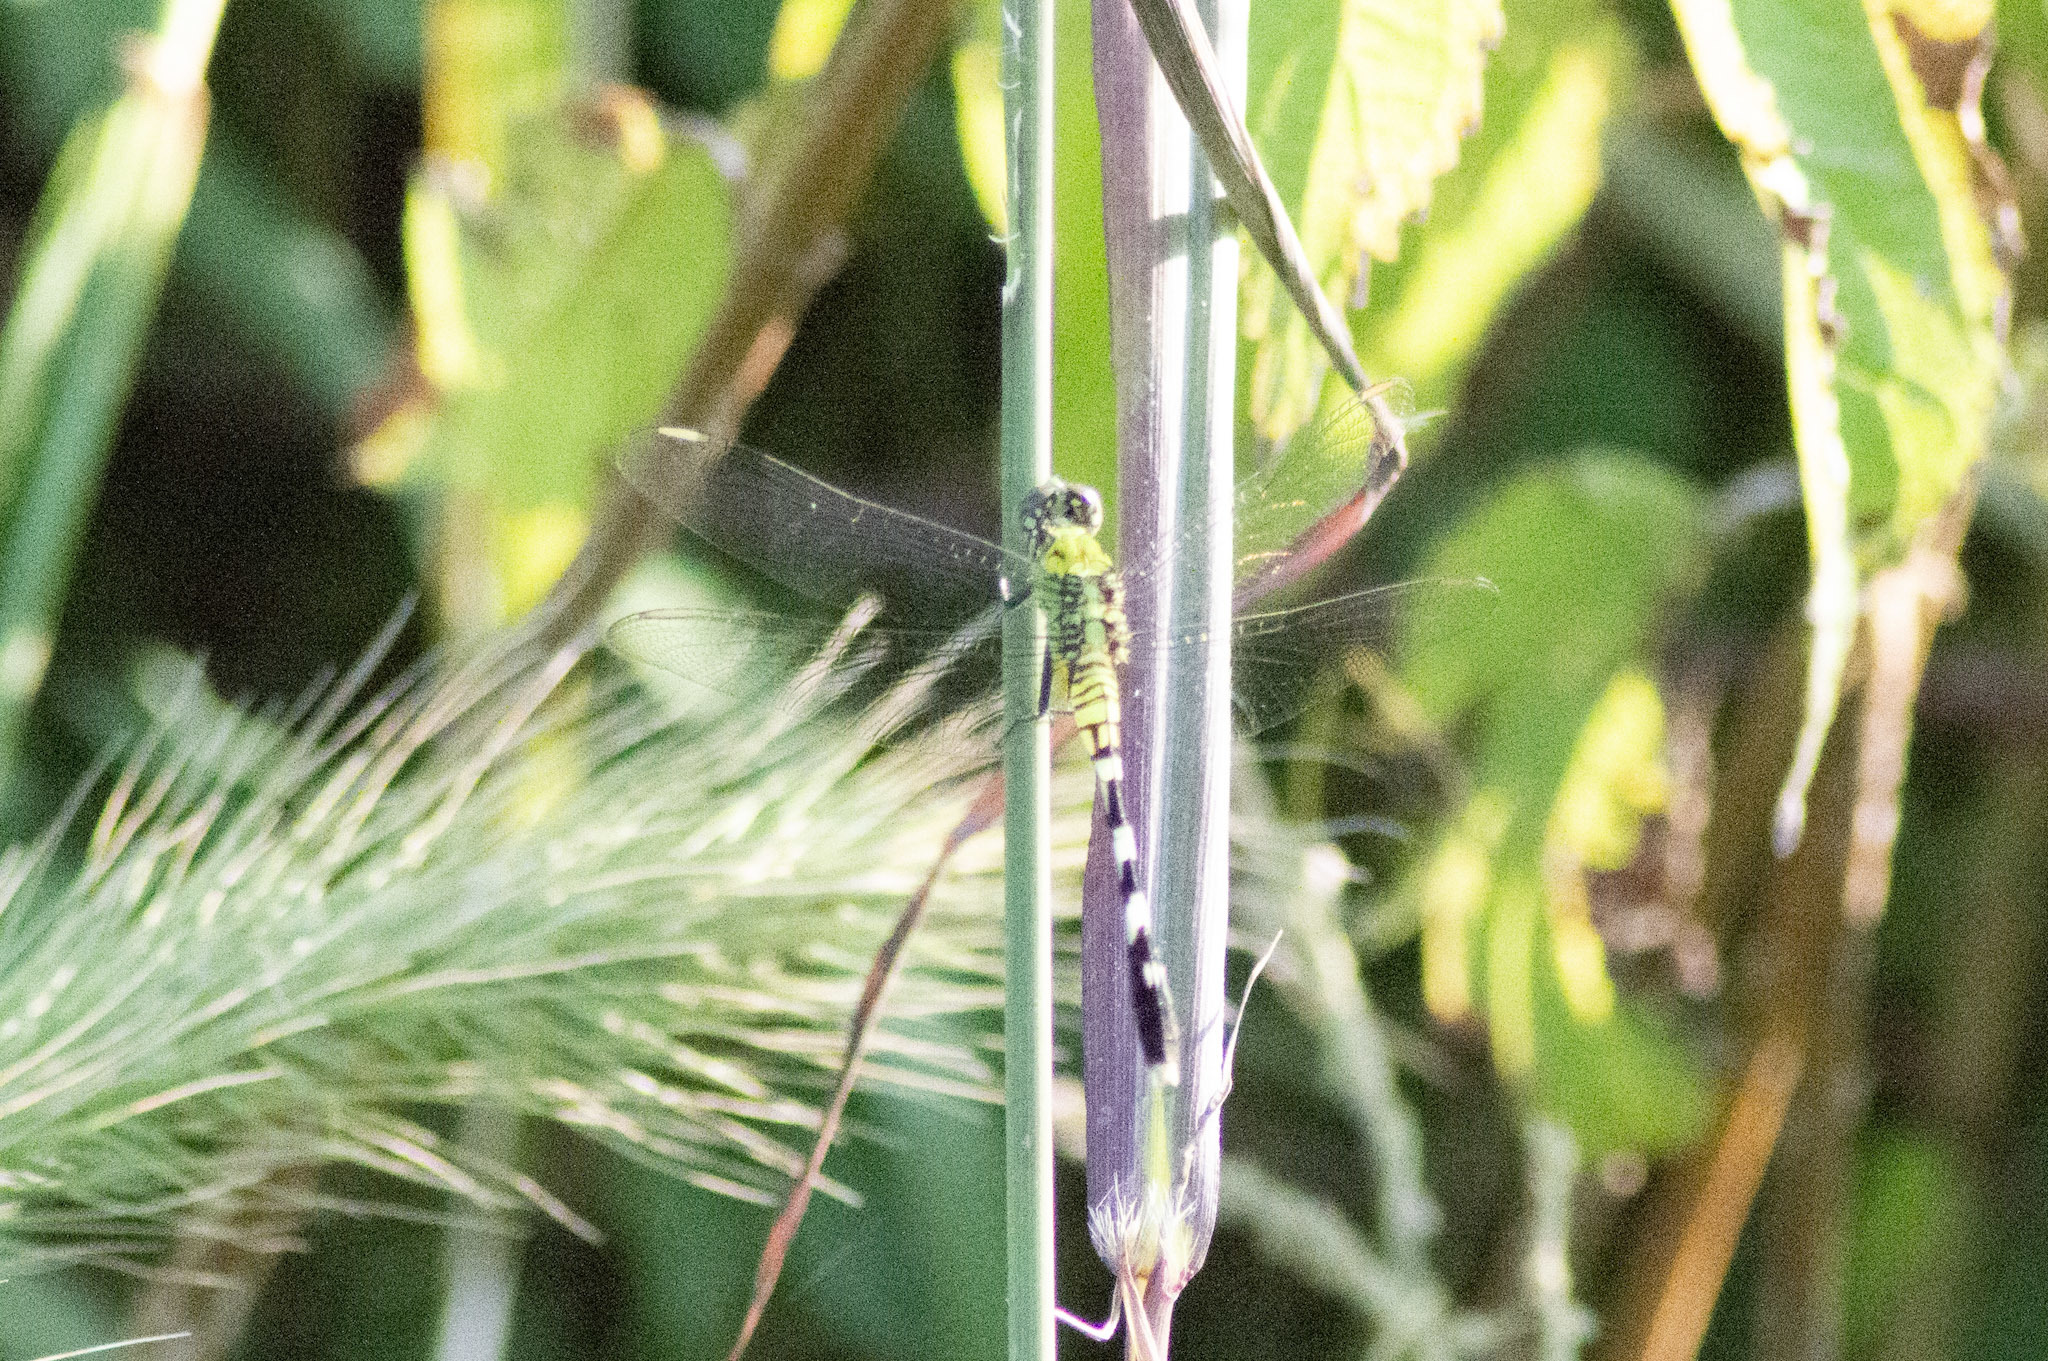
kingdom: Animalia
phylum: Arthropoda
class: Insecta
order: Odonata
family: Libellulidae
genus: Erythemis
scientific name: Erythemis simplicicollis
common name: Eastern pondhawk
